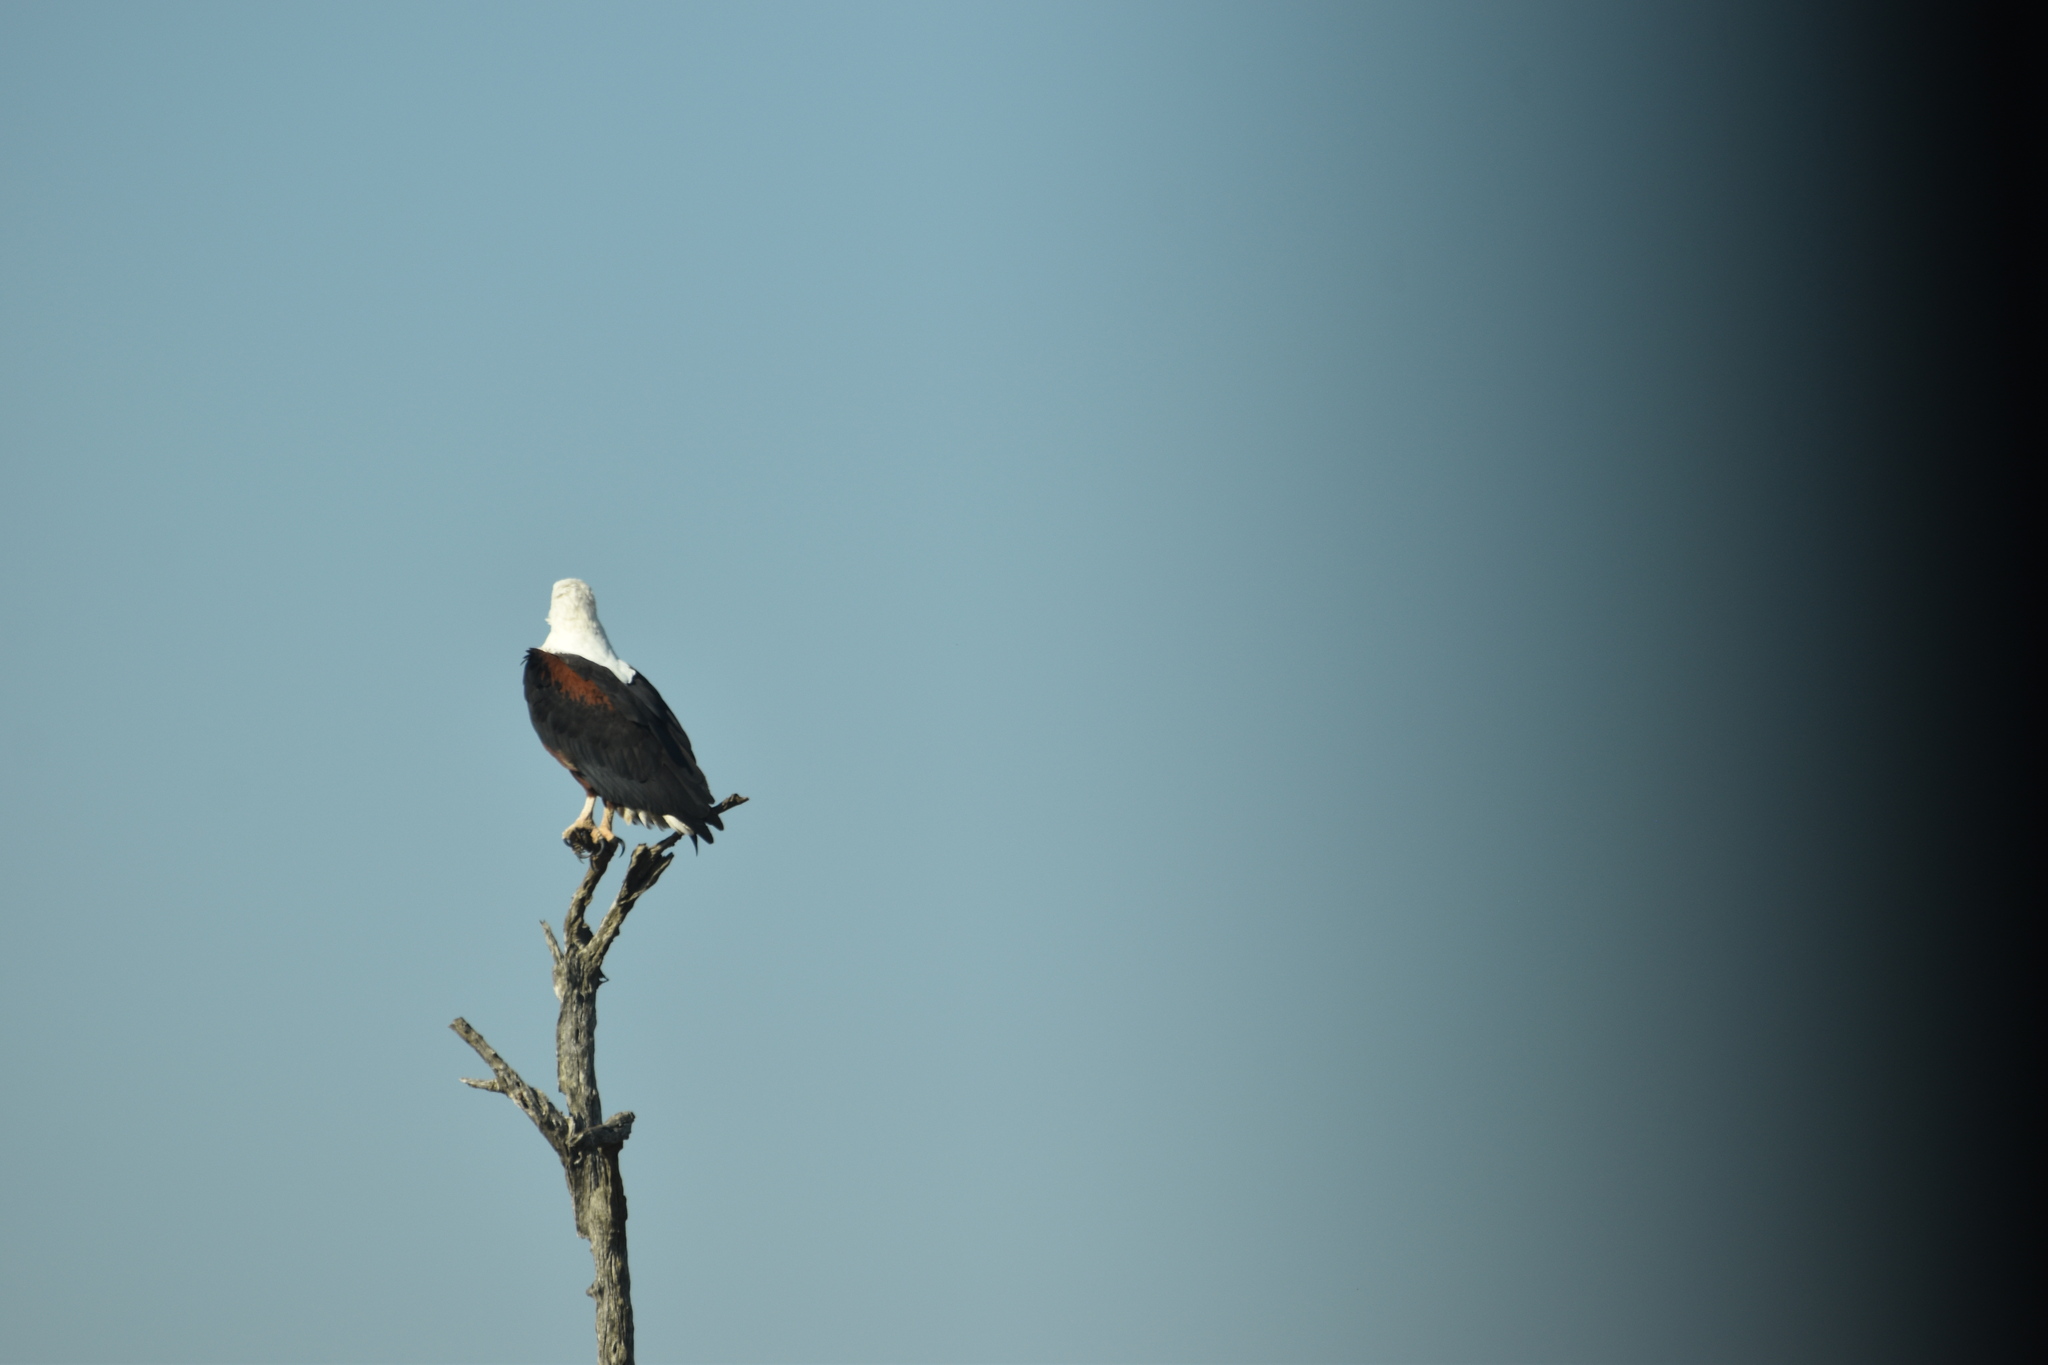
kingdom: Animalia
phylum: Chordata
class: Aves
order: Accipitriformes
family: Accipitridae
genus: Haliaeetus
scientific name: Haliaeetus vocifer
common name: African fish eagle
